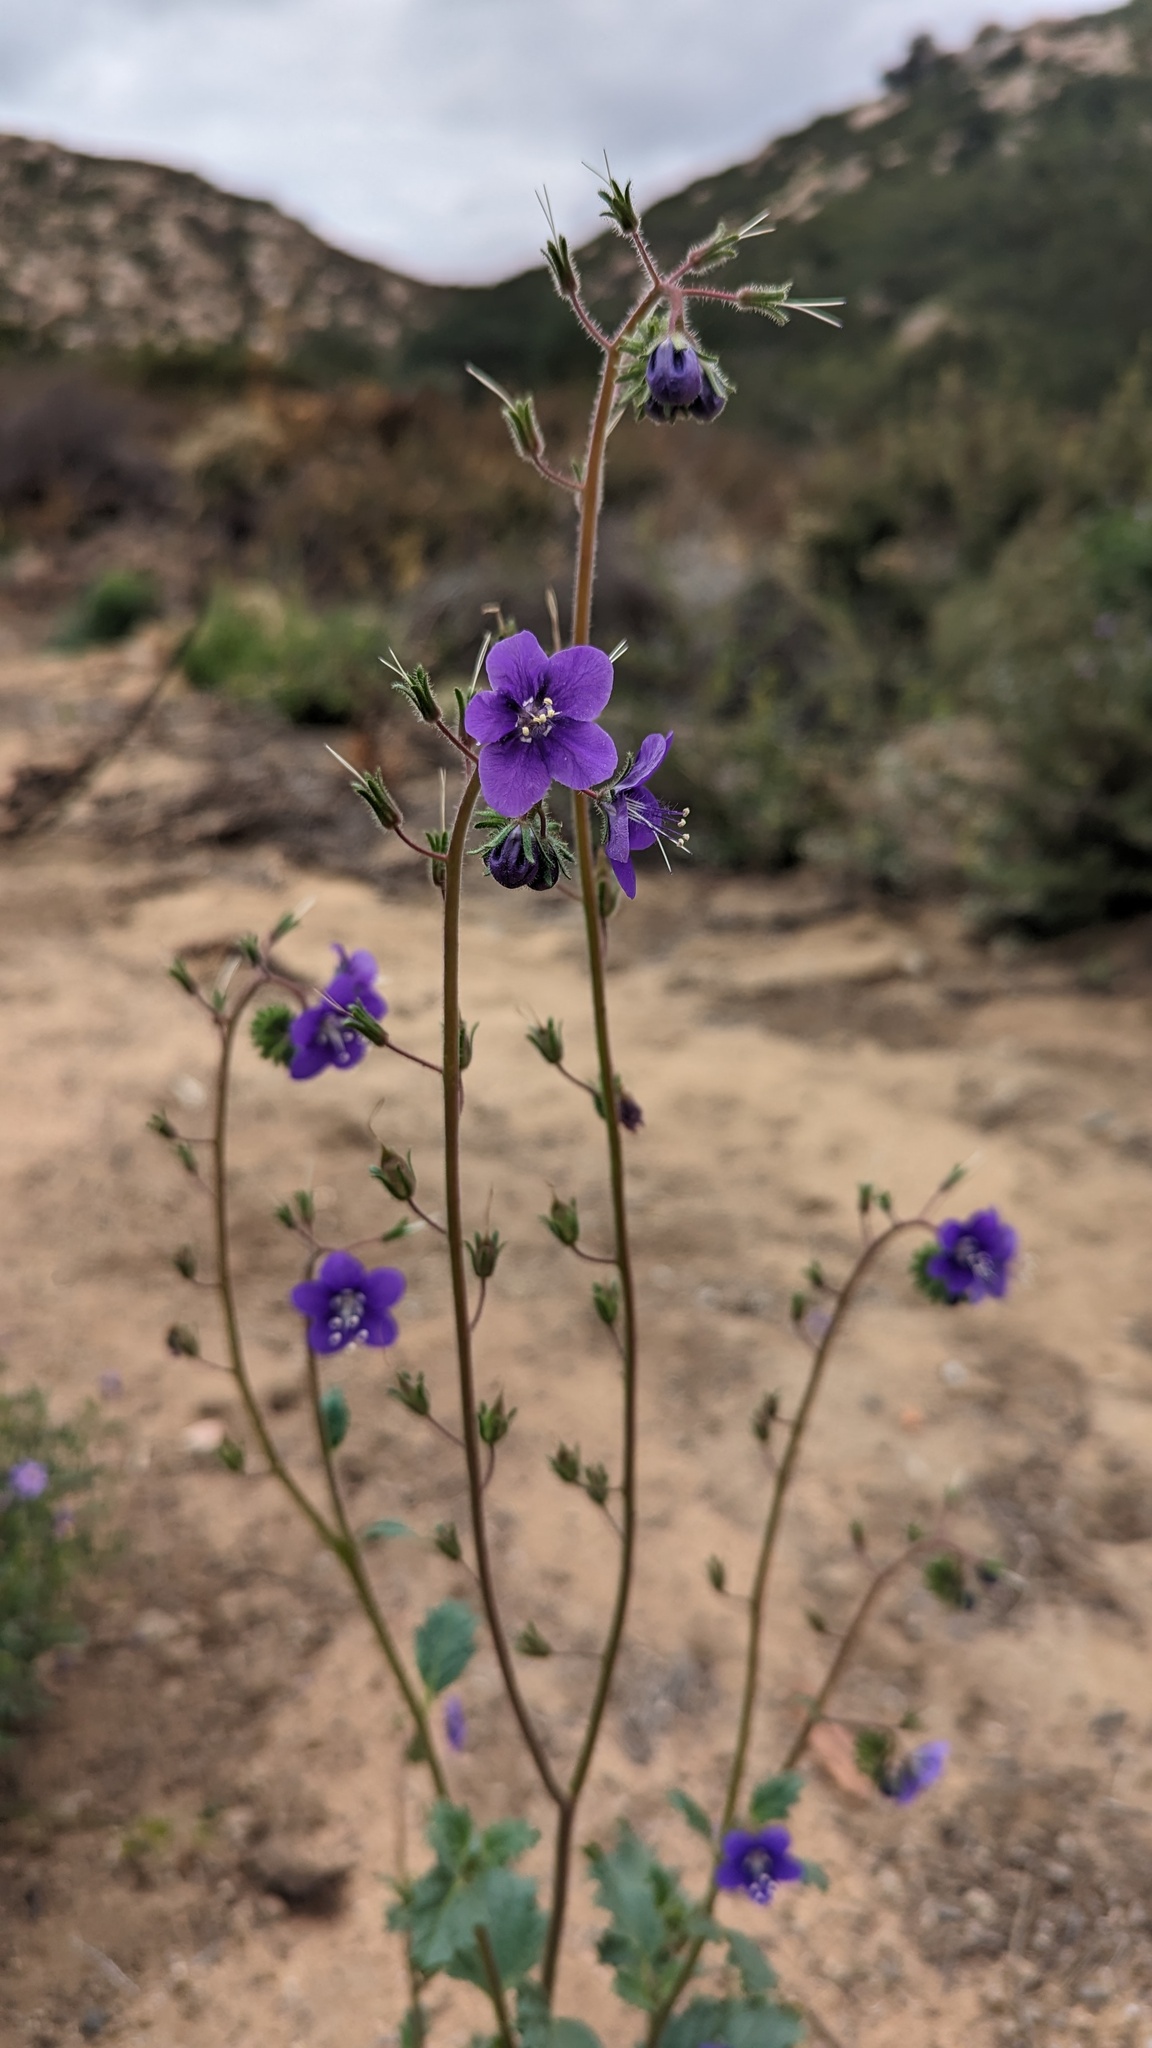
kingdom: Plantae
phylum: Tracheophyta
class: Magnoliopsida
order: Boraginales
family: Hydrophyllaceae
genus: Phacelia
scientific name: Phacelia parryi
